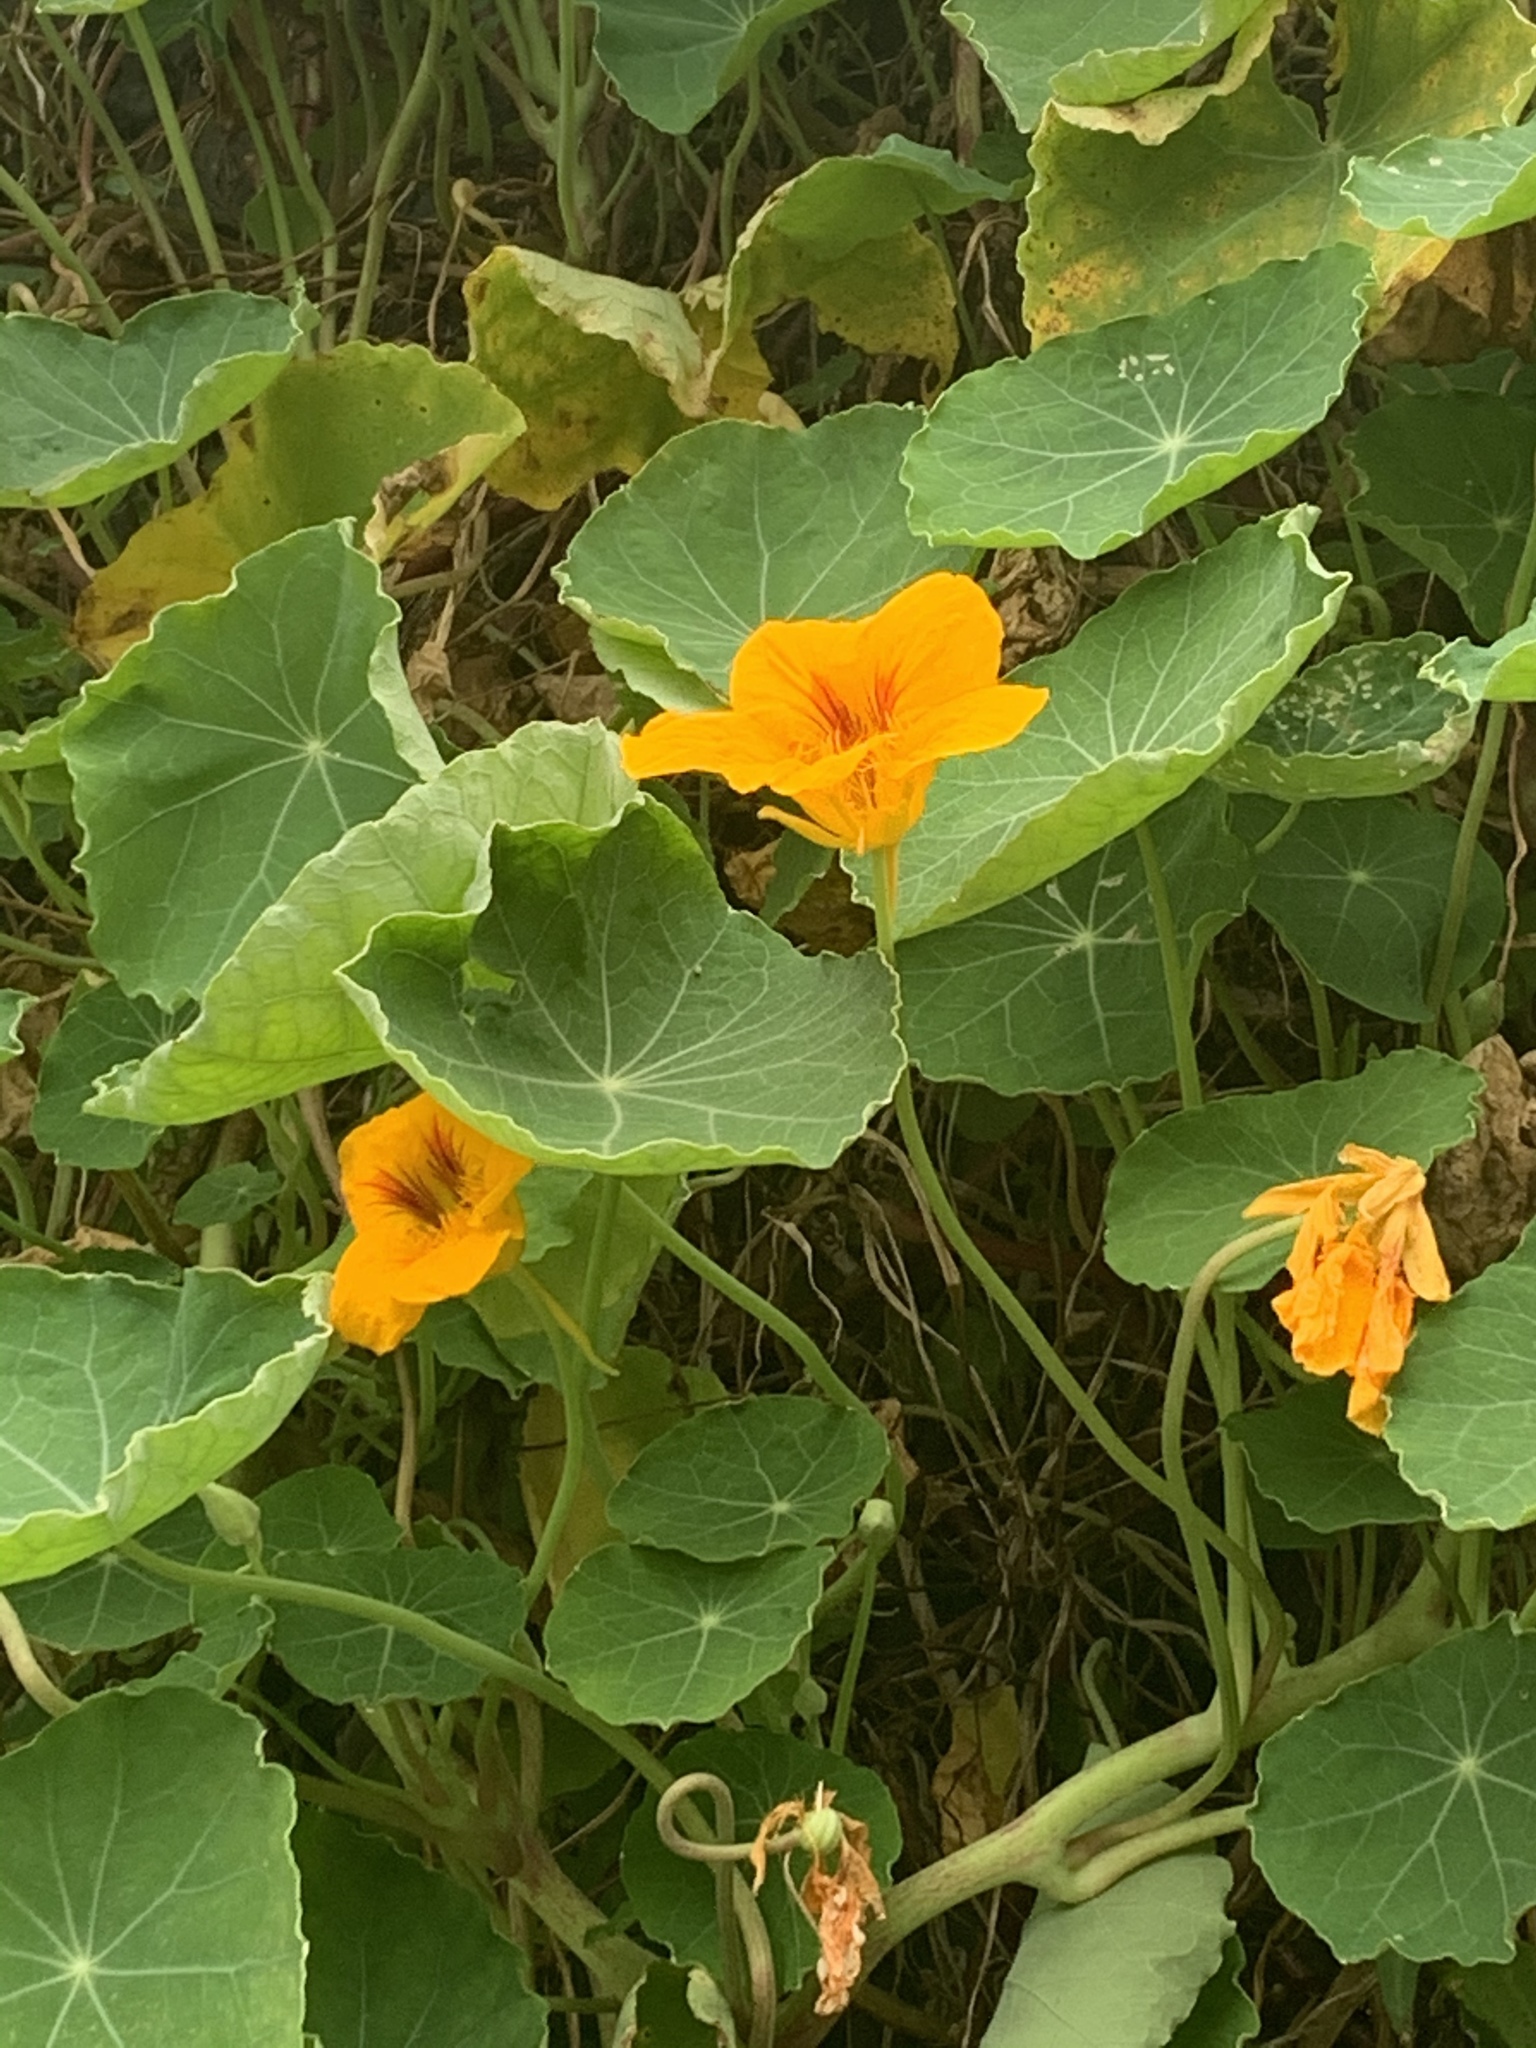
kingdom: Plantae
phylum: Tracheophyta
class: Magnoliopsida
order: Brassicales
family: Tropaeolaceae
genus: Tropaeolum
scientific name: Tropaeolum majus
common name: Nasturtium
